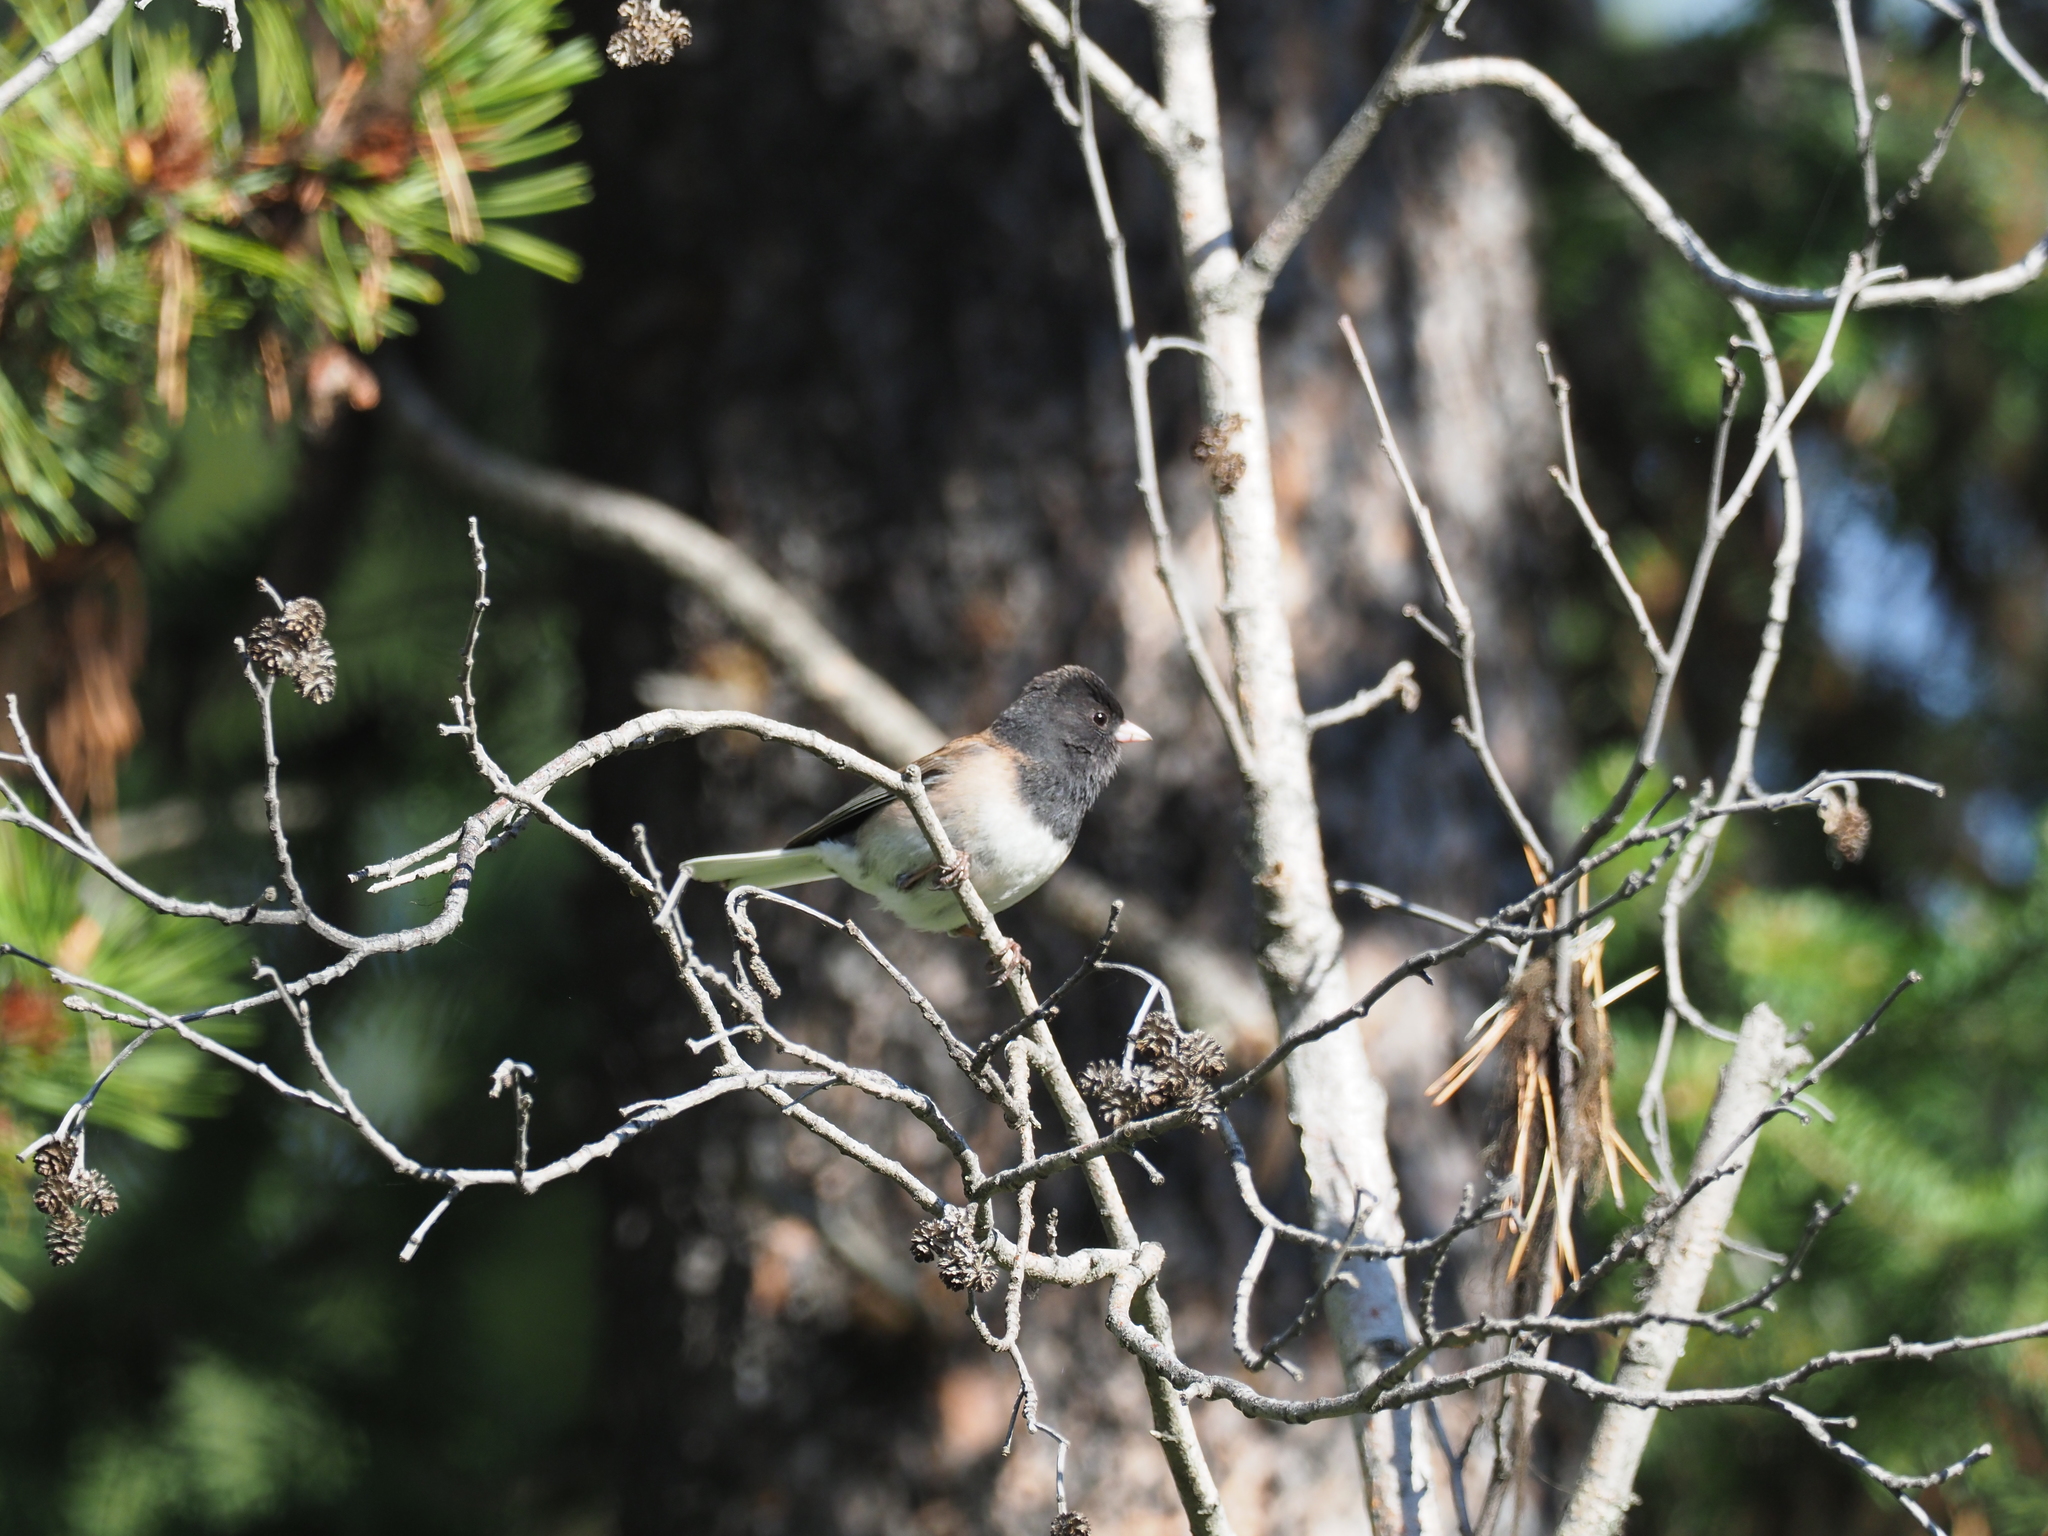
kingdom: Animalia
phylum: Chordata
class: Aves
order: Passeriformes
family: Passerellidae
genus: Junco
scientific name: Junco hyemalis
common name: Dark-eyed junco
